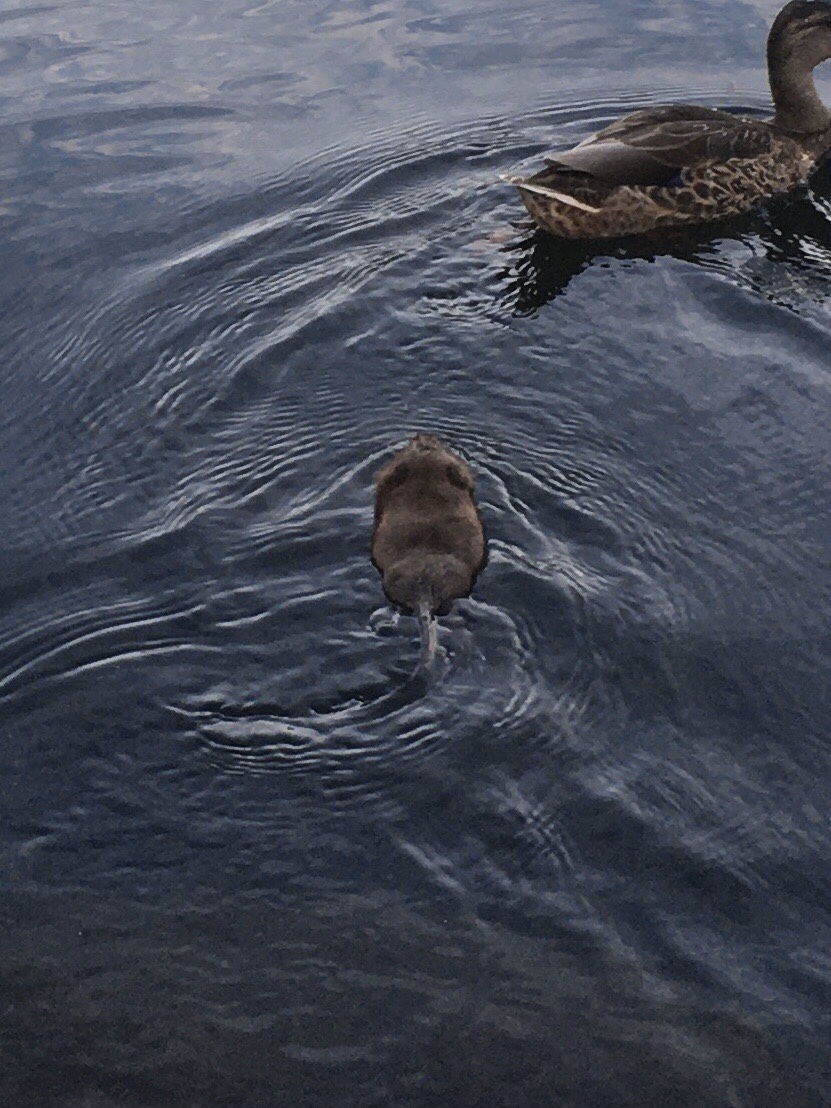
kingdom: Animalia
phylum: Chordata
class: Mammalia
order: Rodentia
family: Cricetidae
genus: Ondatra
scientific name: Ondatra zibethicus
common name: Muskrat
